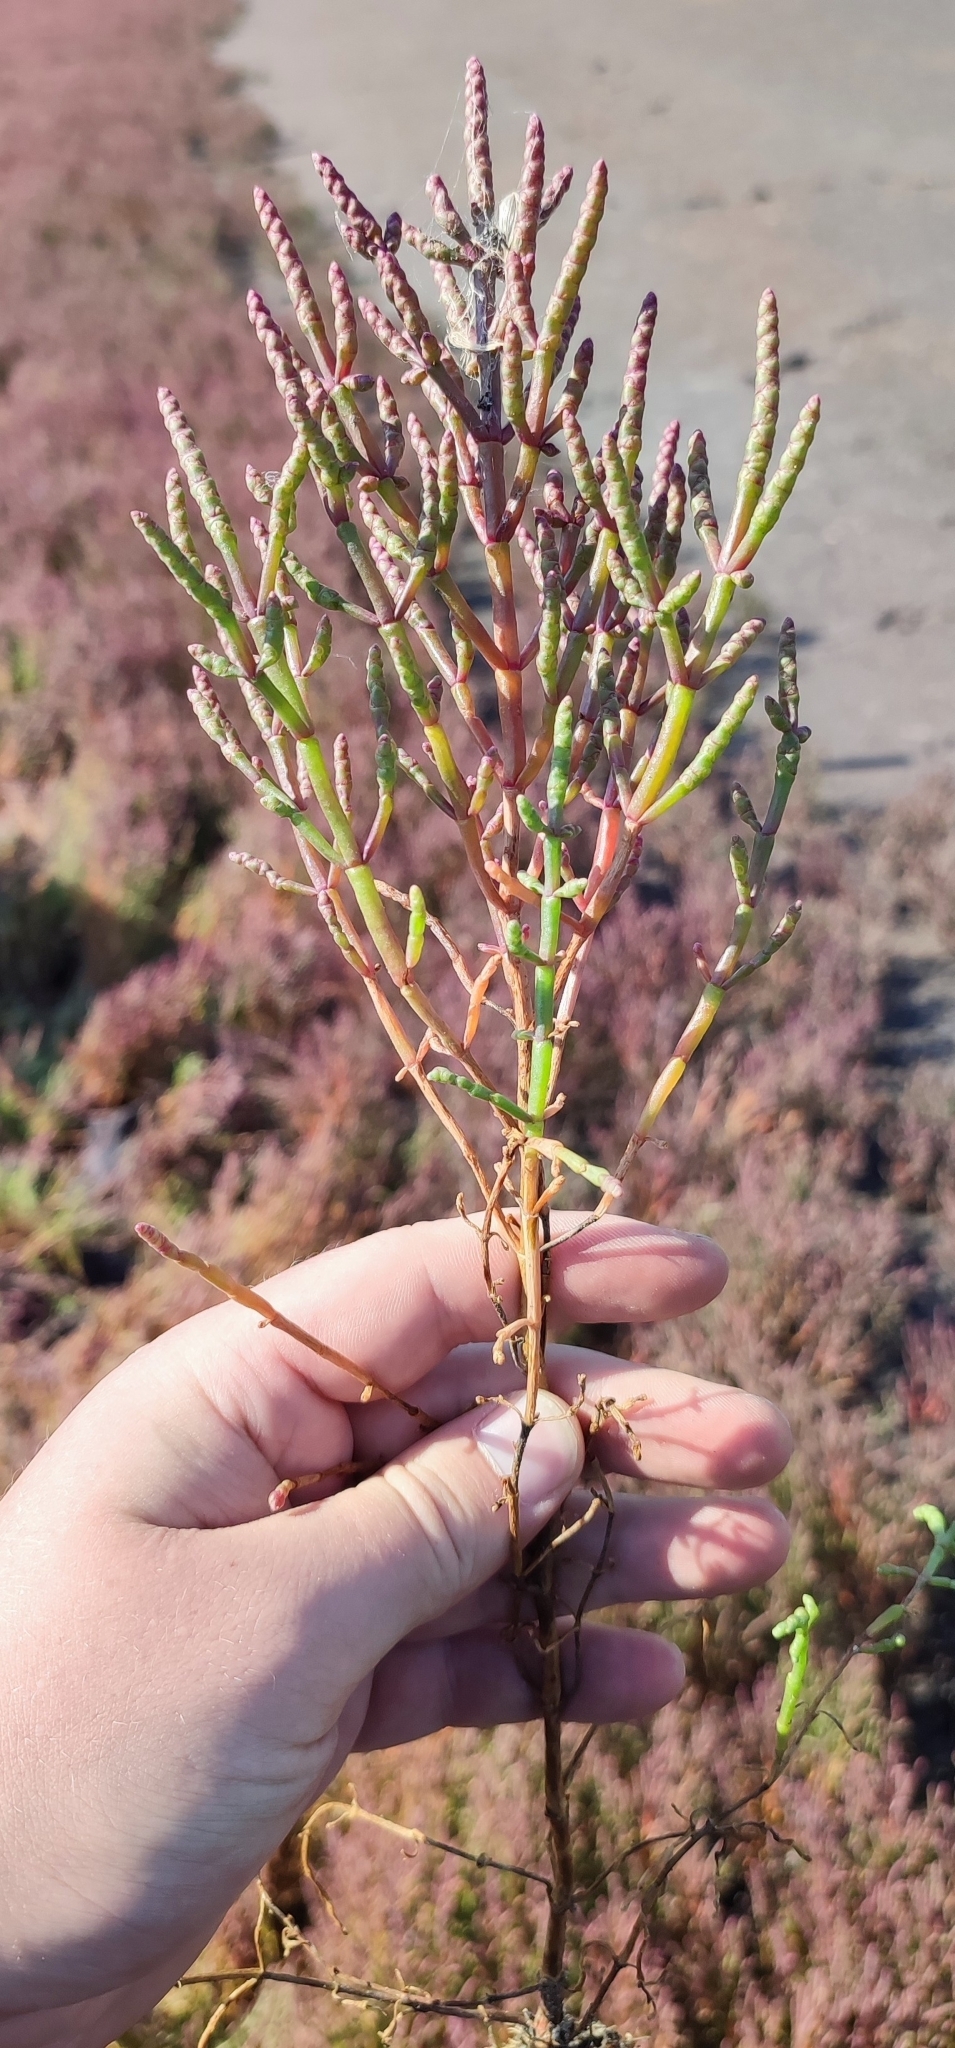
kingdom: Plantae
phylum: Tracheophyta
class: Magnoliopsida
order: Caryophyllales
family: Amaranthaceae
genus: Salicornia
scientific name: Salicornia perennans
